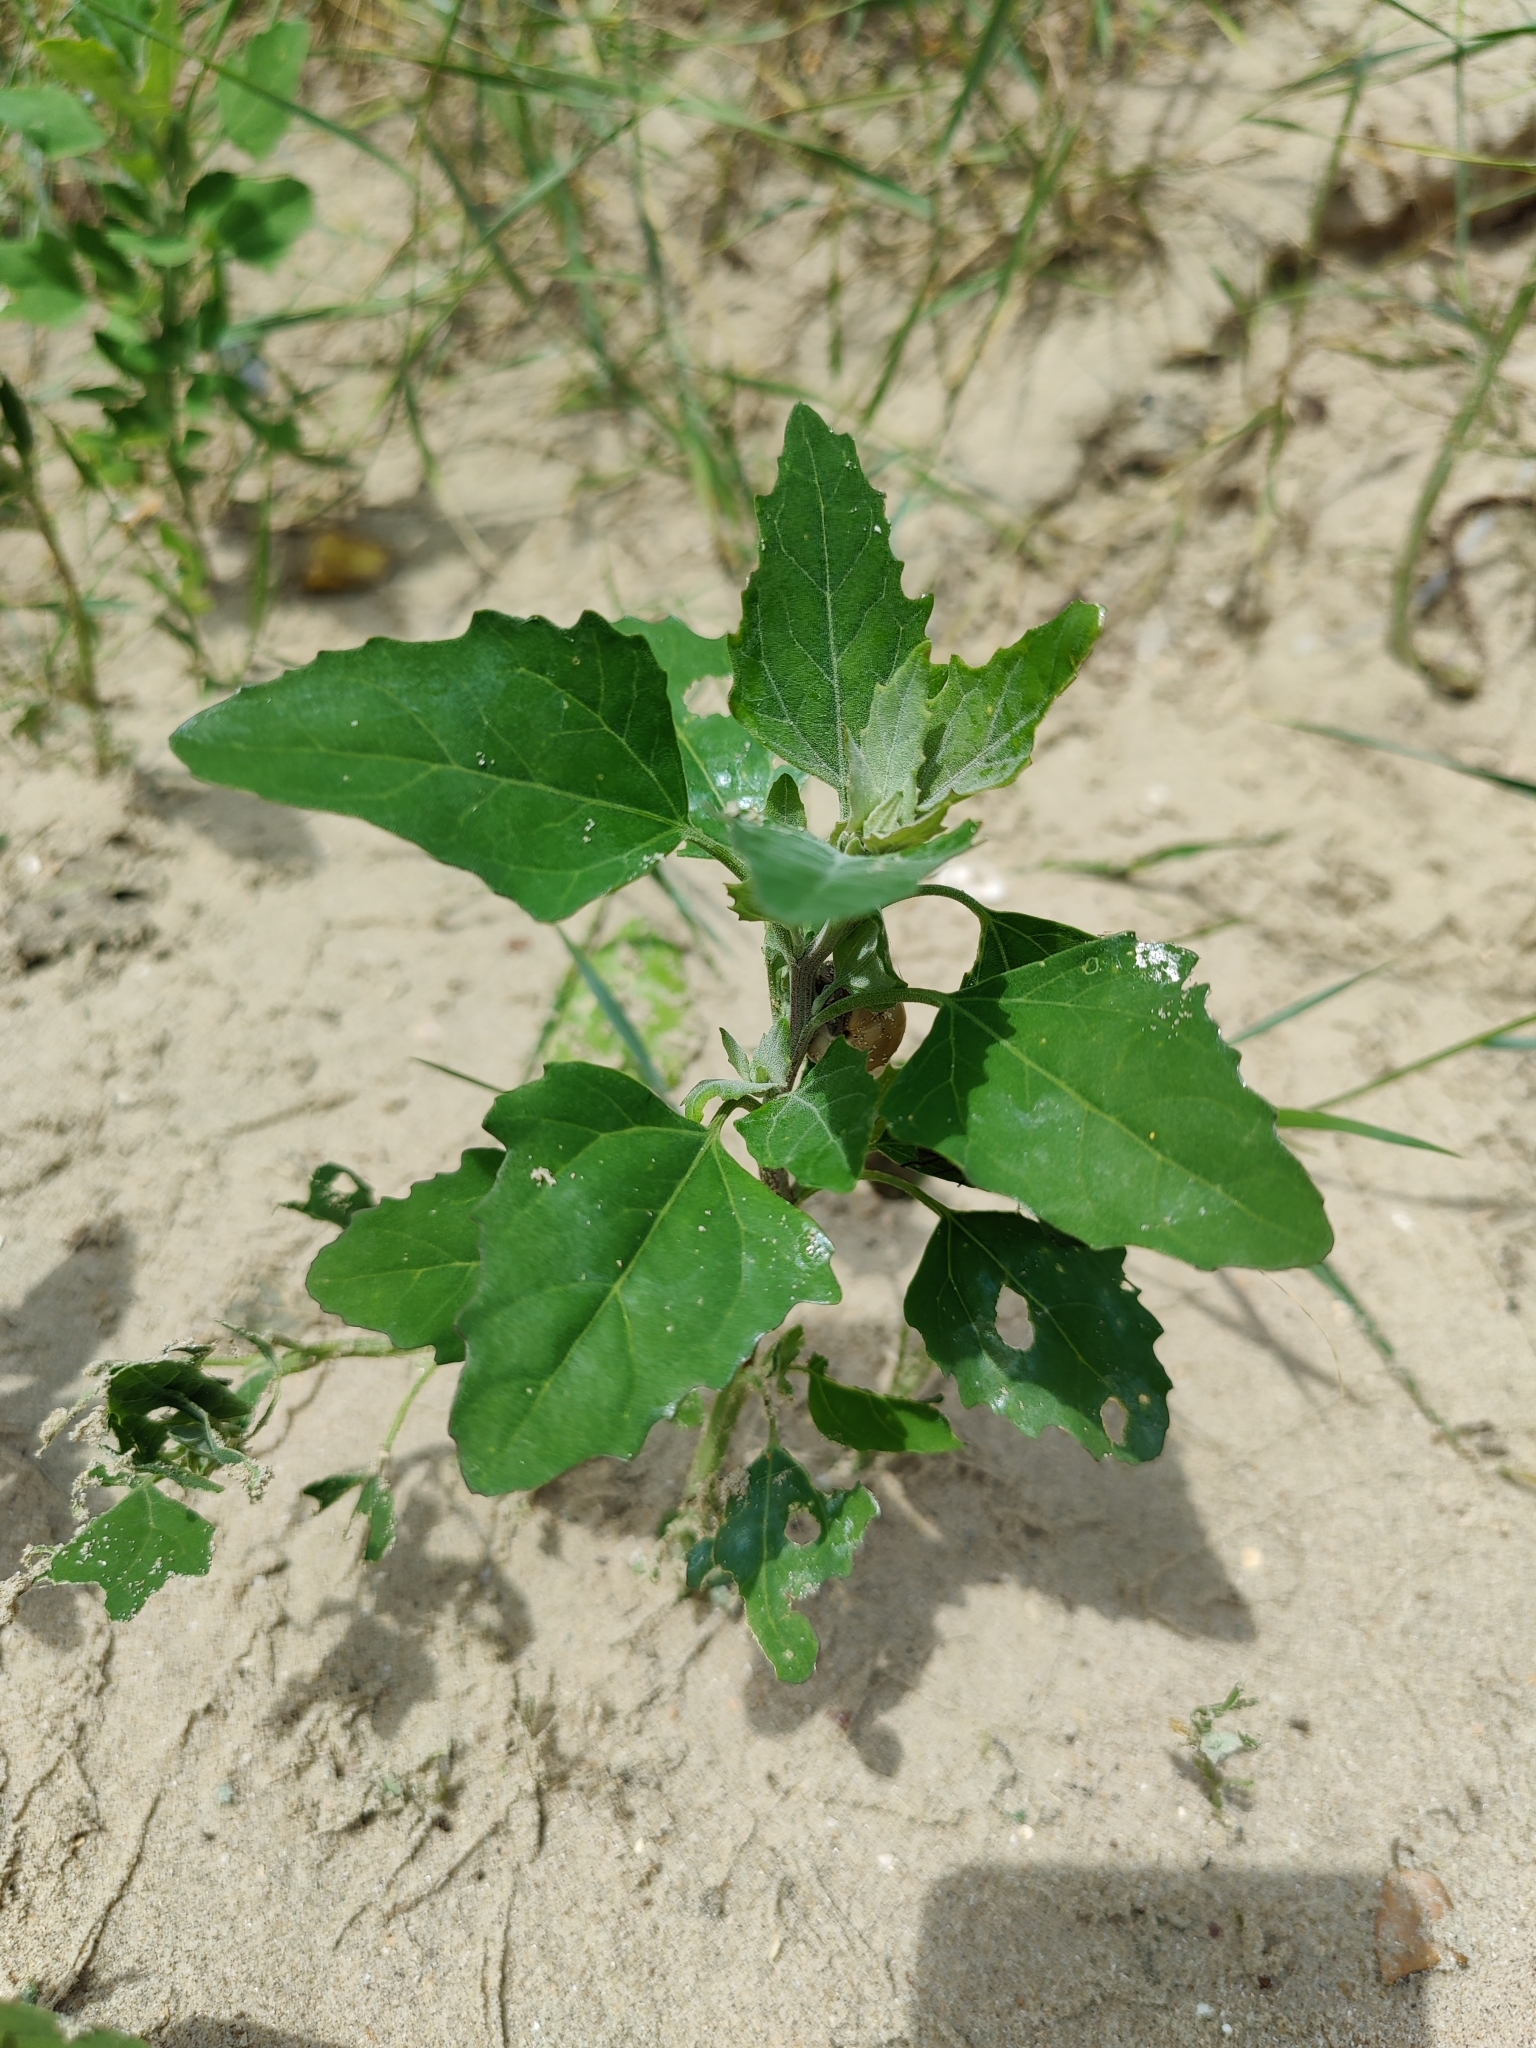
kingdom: Plantae
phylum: Tracheophyta
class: Magnoliopsida
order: Caryophyllales
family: Amaranthaceae
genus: Chenopodium
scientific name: Chenopodium album
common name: Fat-hen
